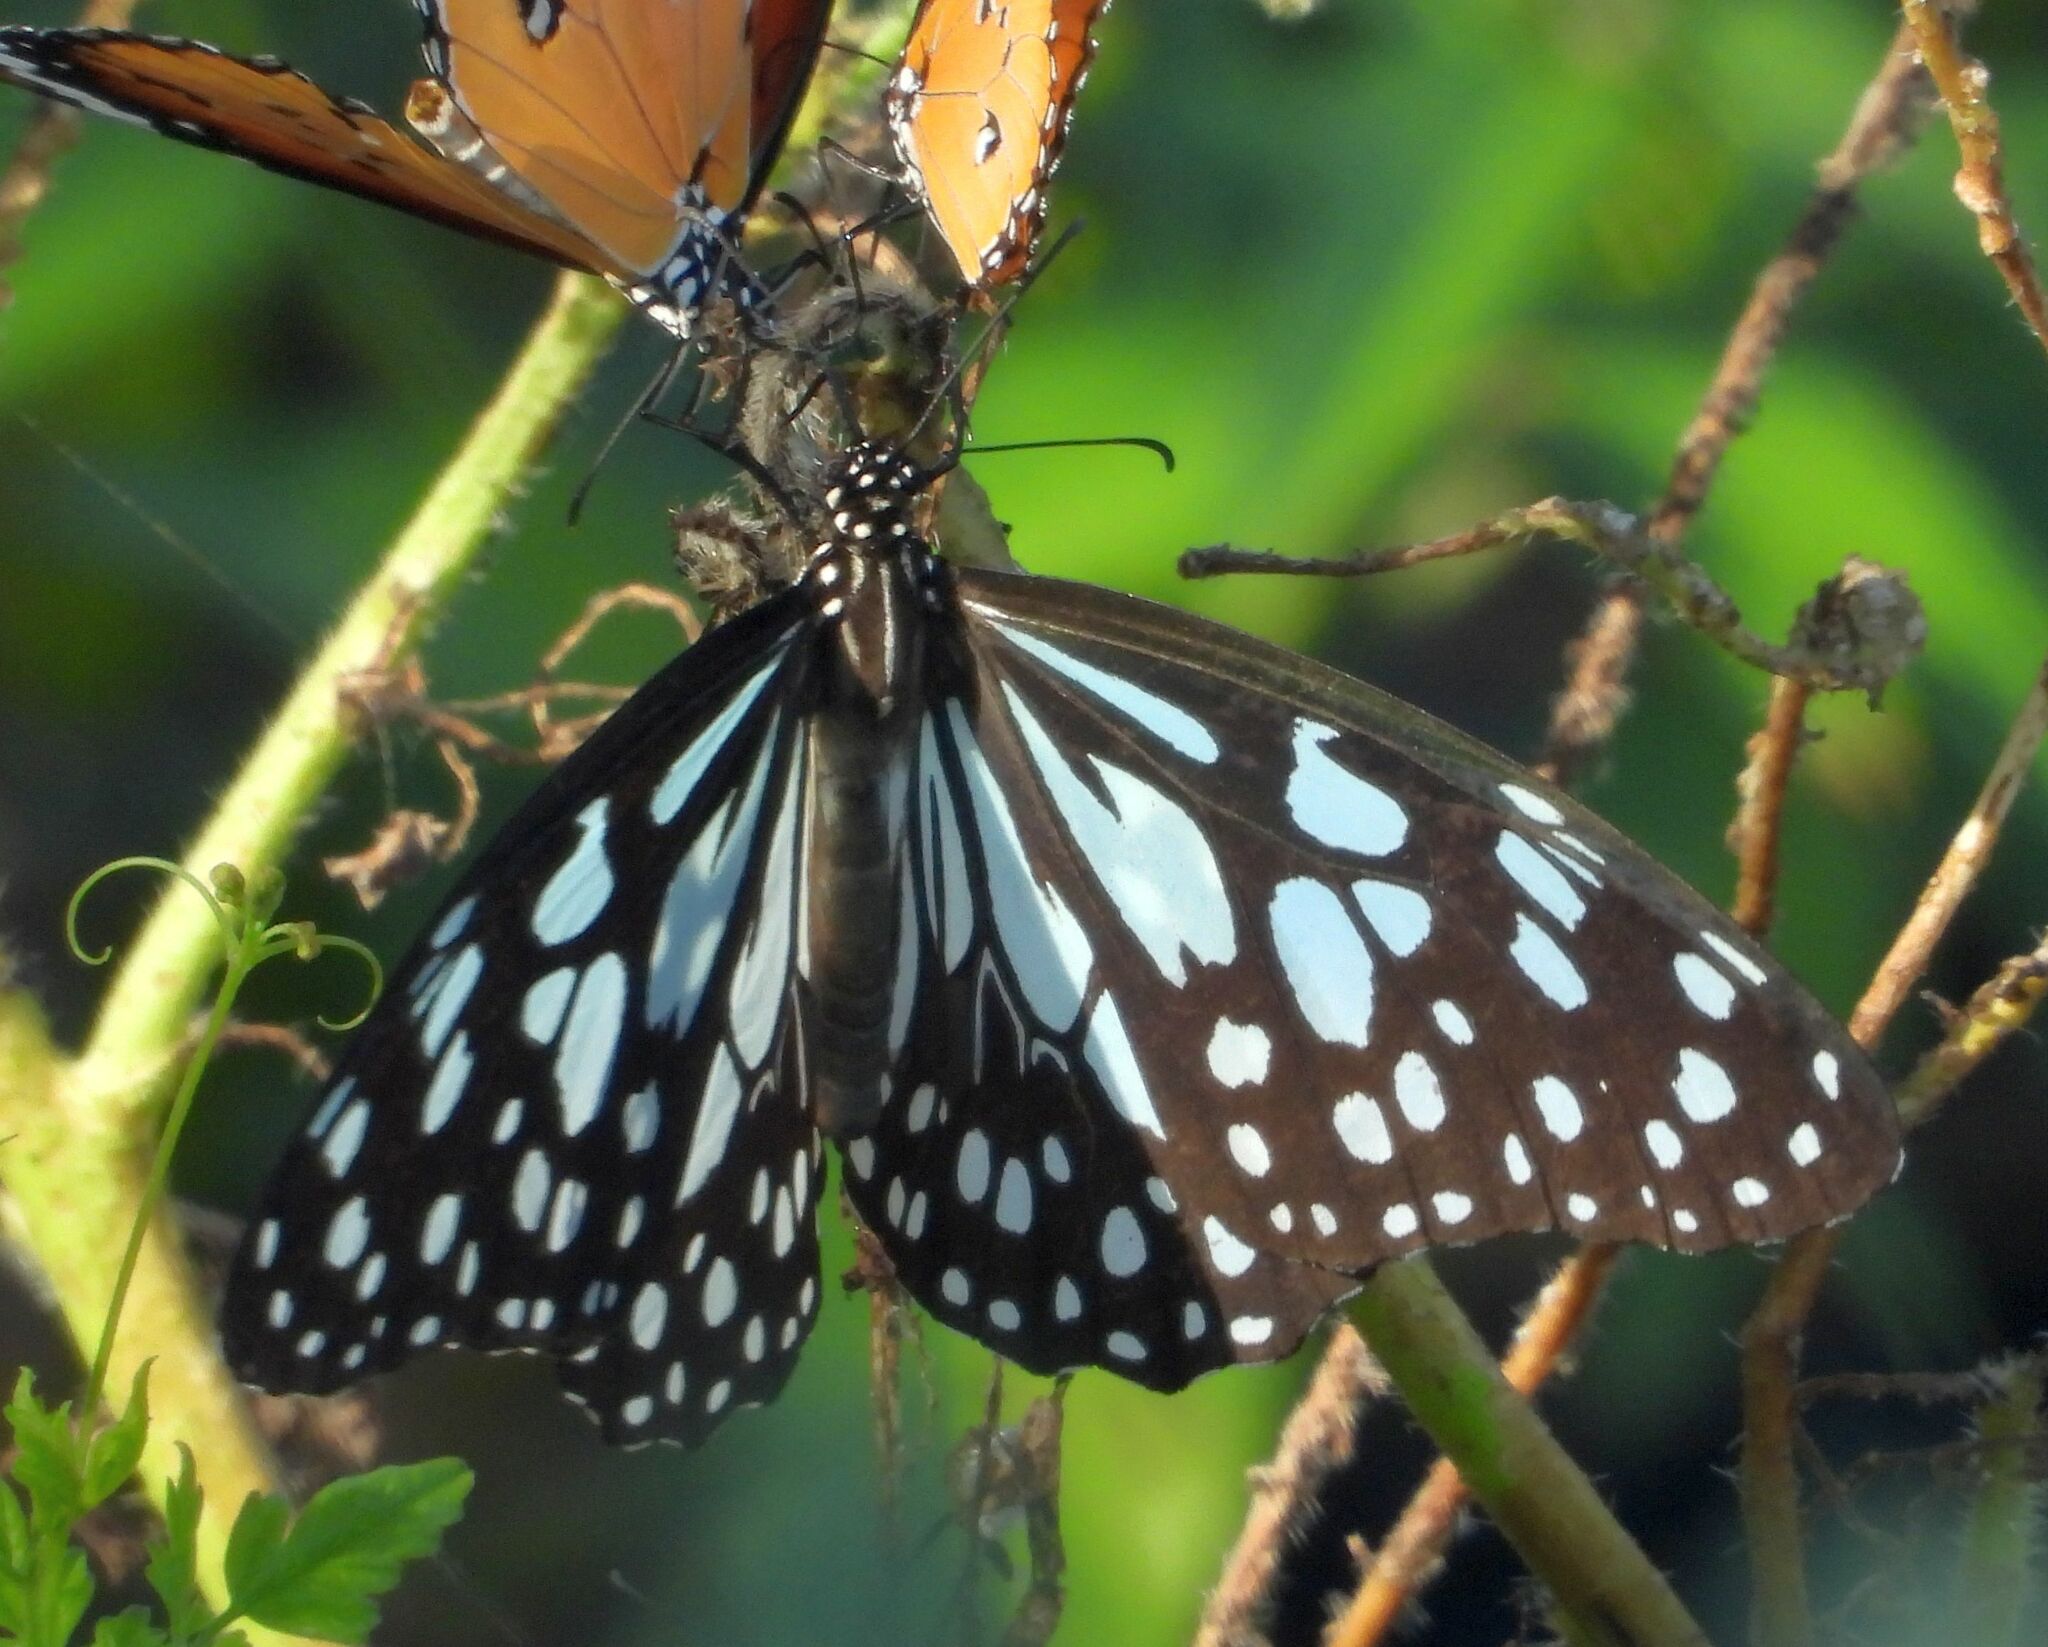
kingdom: Animalia
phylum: Arthropoda
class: Insecta
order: Lepidoptera
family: Nymphalidae
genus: Tirumala
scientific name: Tirumala limniace
